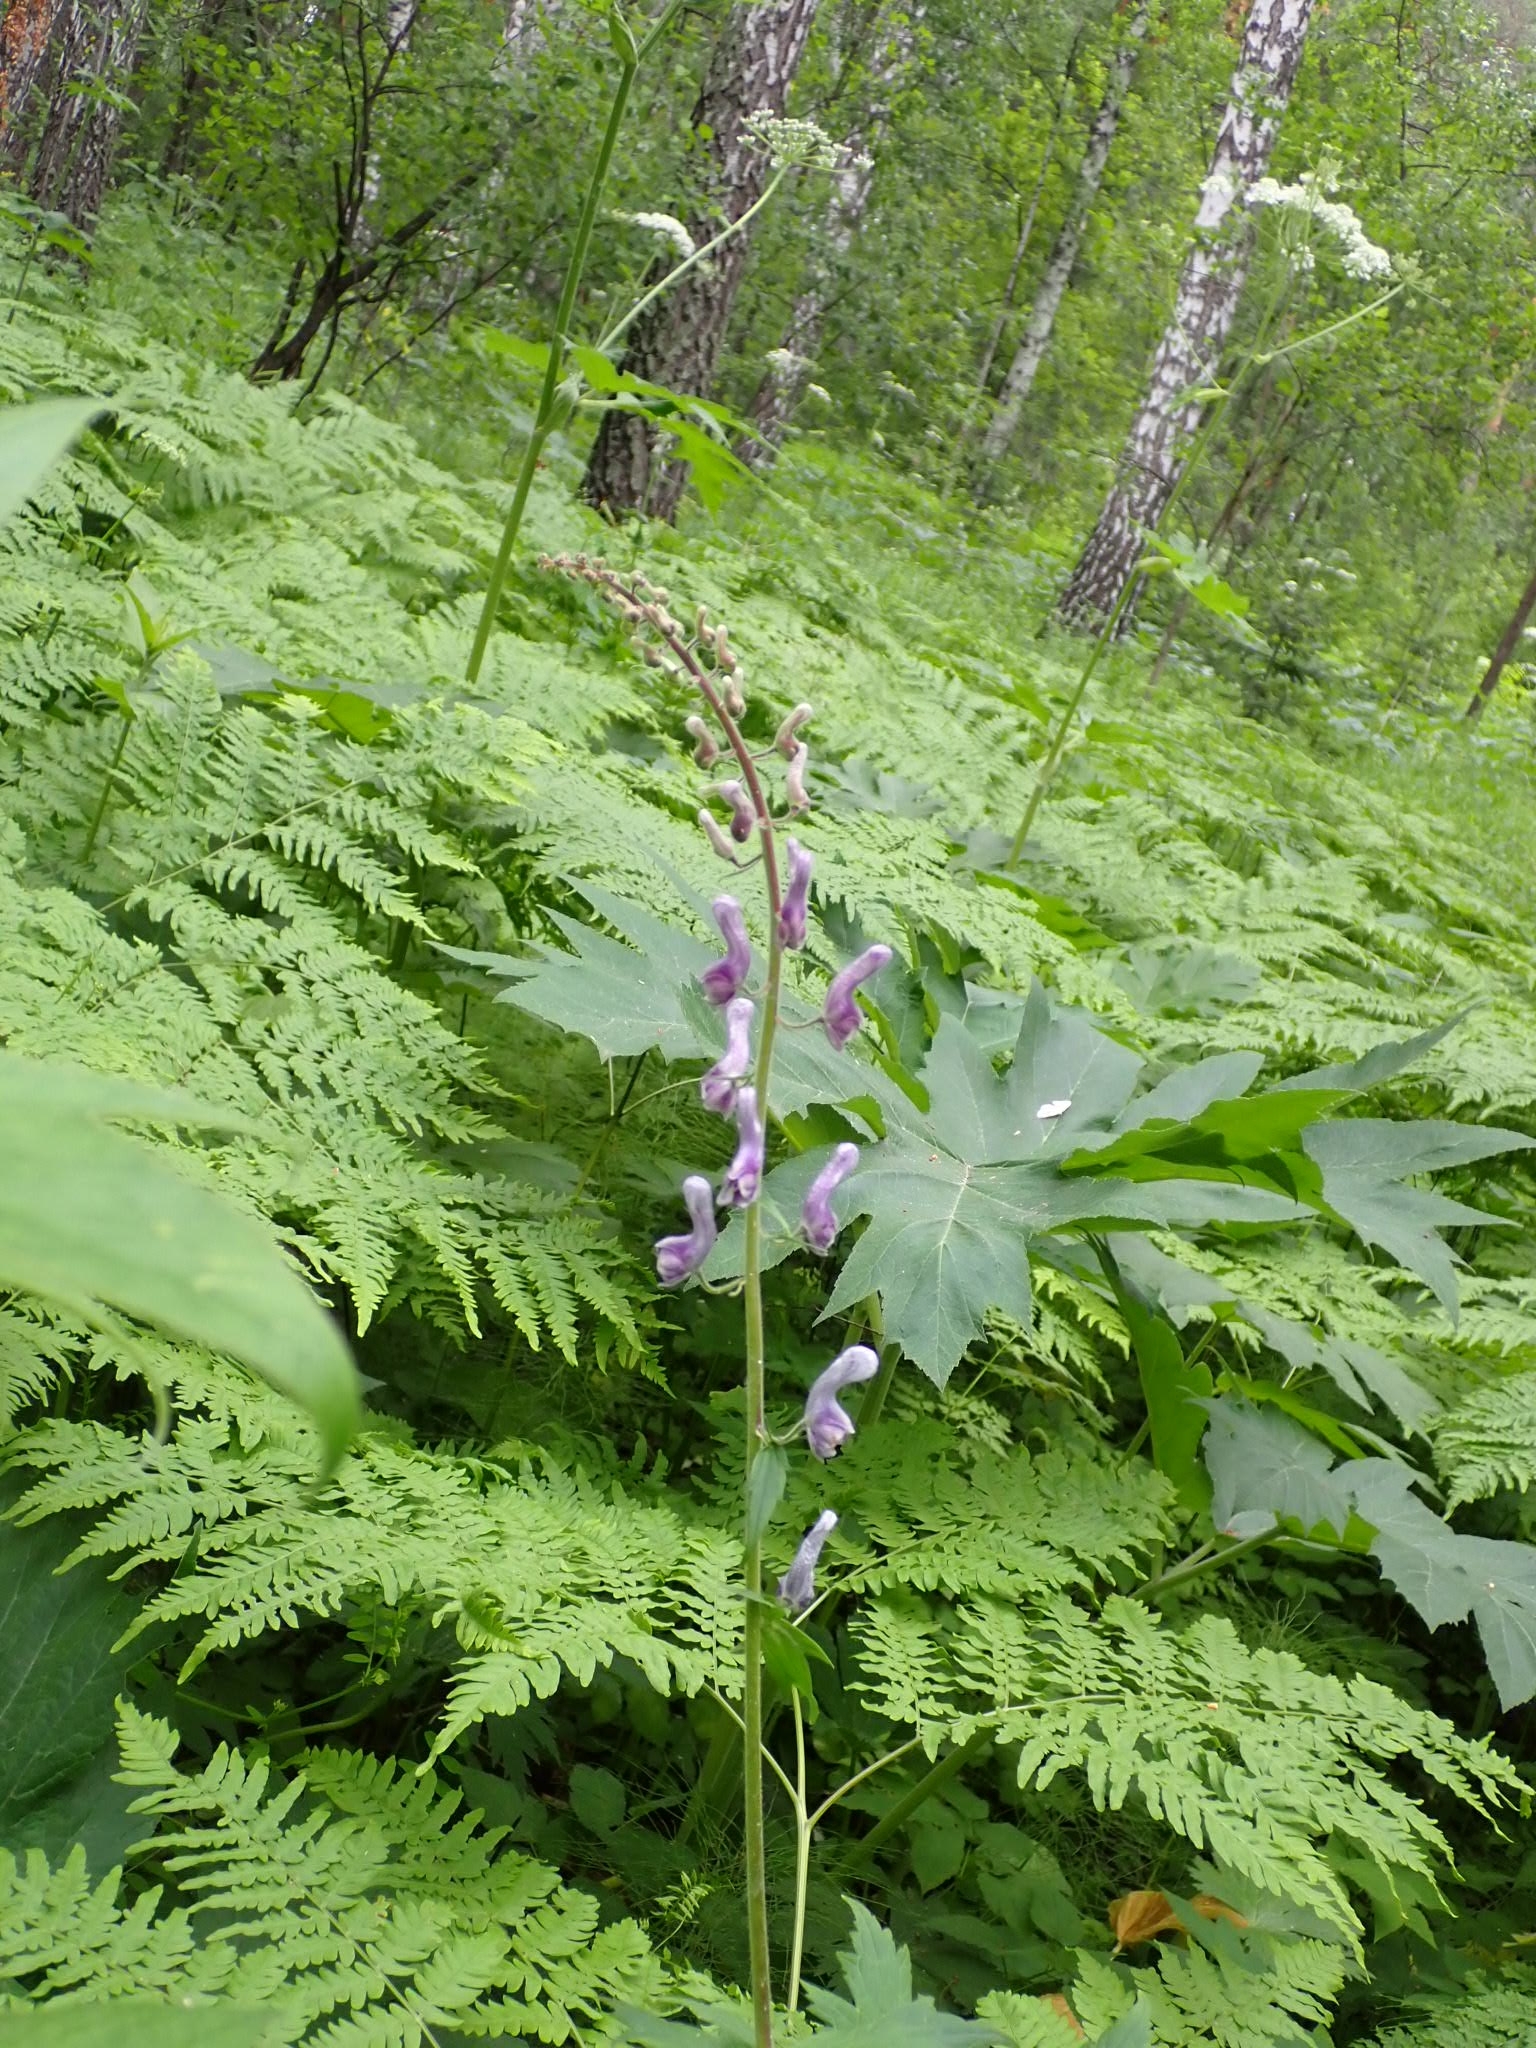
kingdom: Plantae
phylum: Tracheophyta
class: Magnoliopsida
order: Ranunculales
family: Ranunculaceae
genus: Aconitum
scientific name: Aconitum septentrionale
